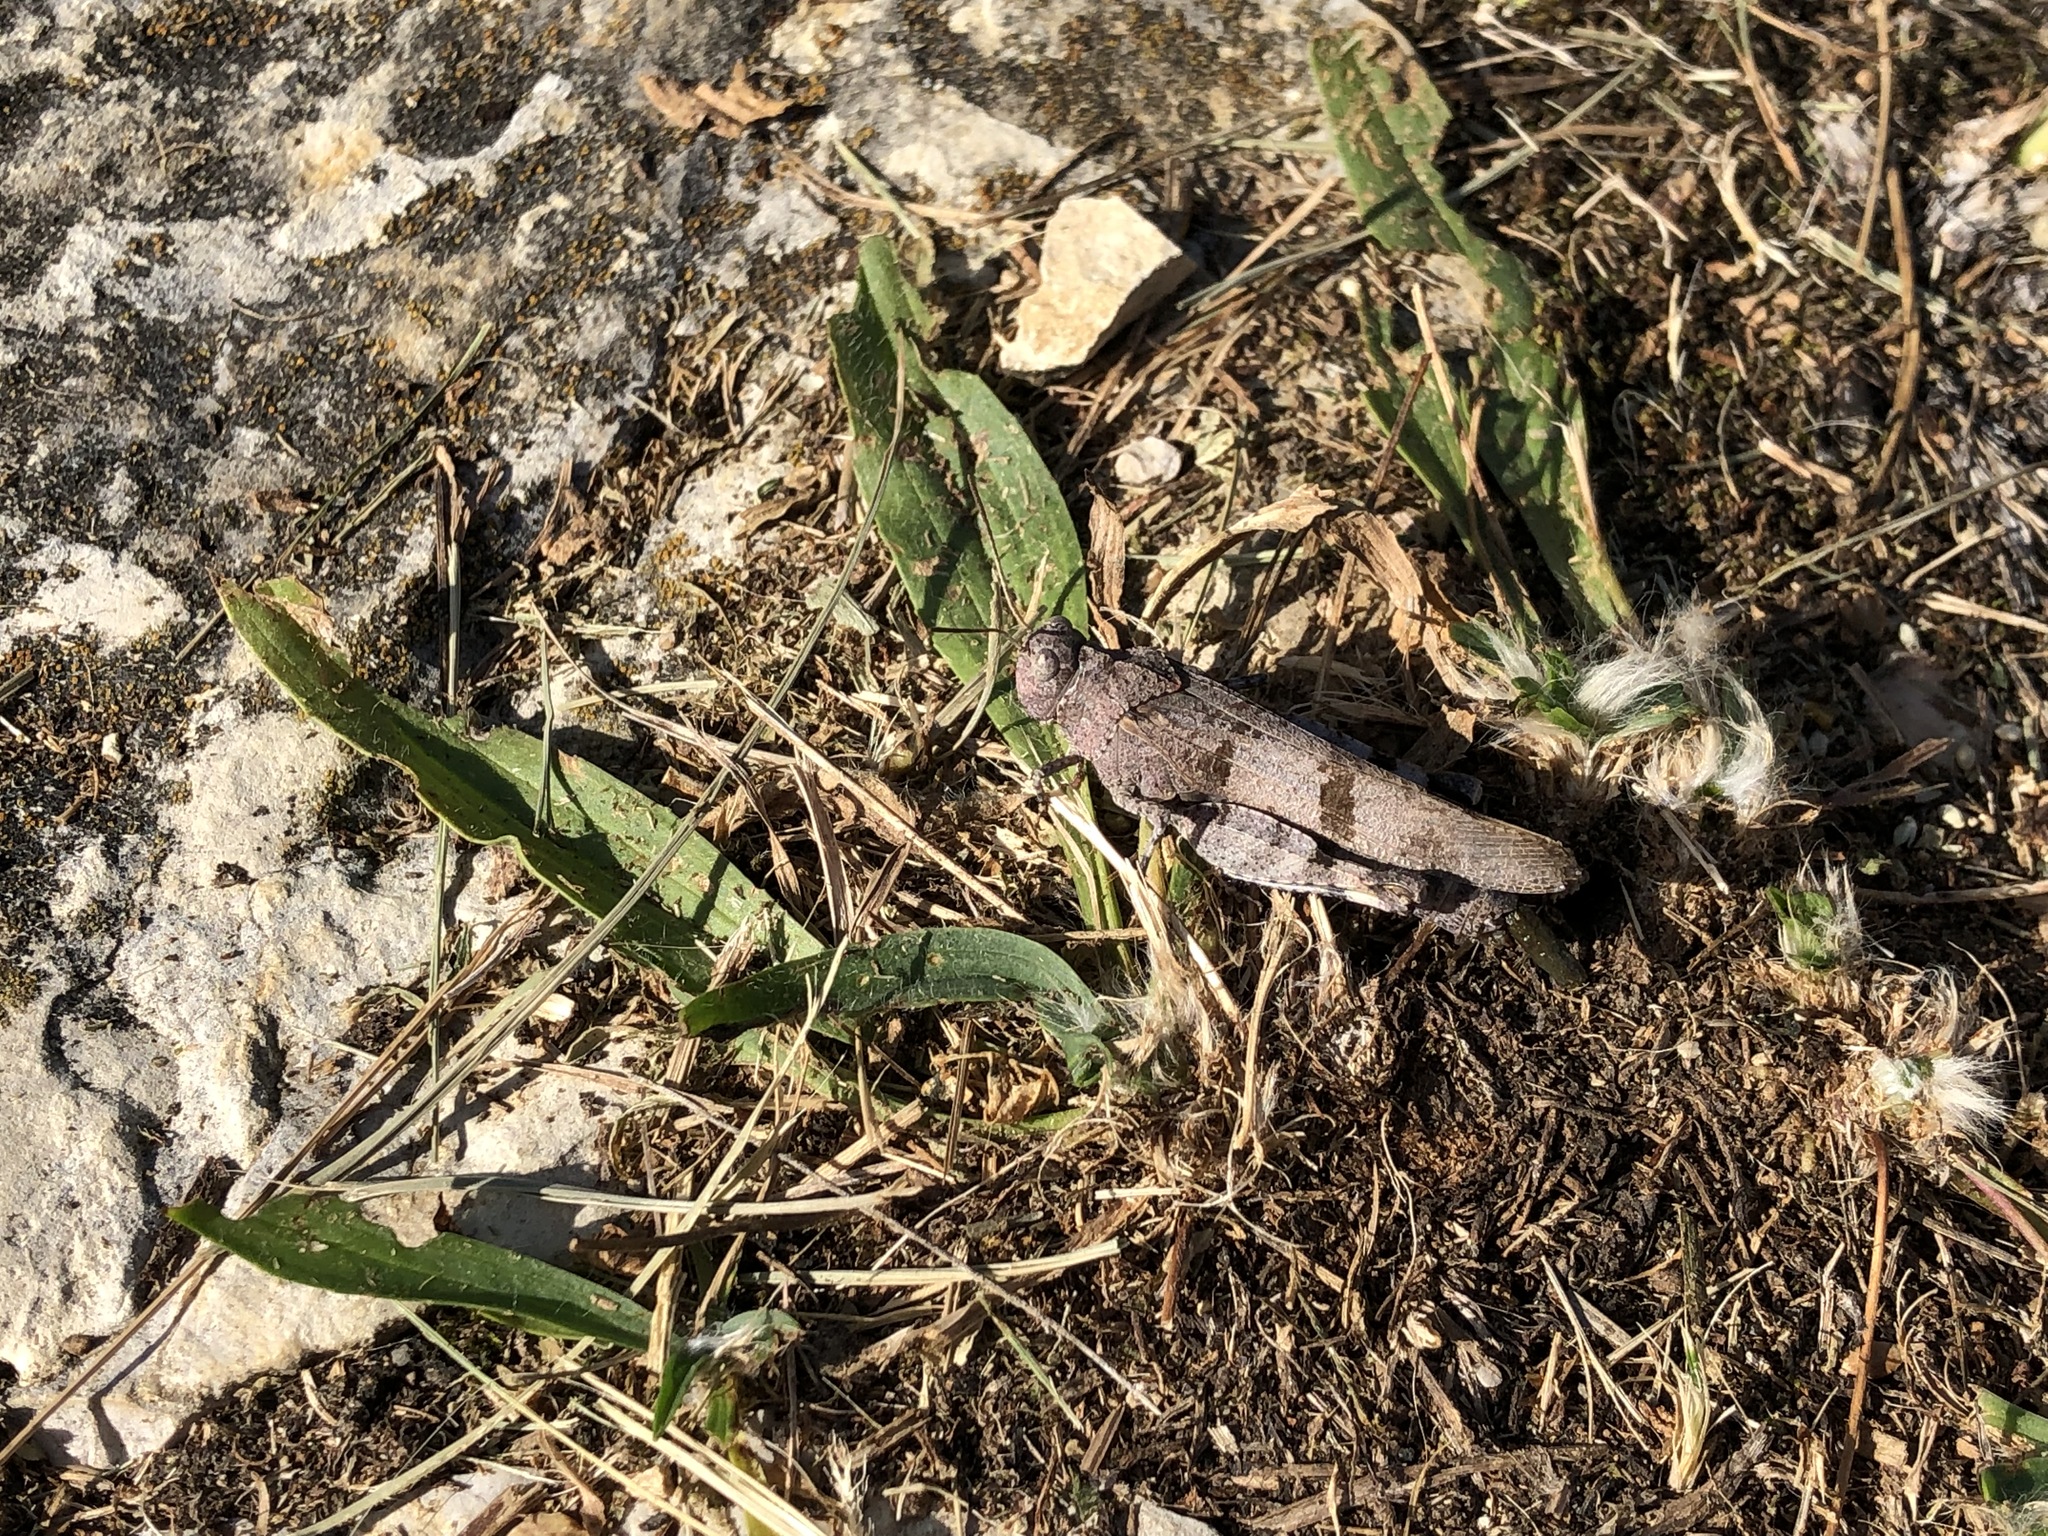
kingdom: Animalia
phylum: Arthropoda
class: Insecta
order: Orthoptera
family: Acrididae
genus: Oedipoda
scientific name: Oedipoda caerulescens
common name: Blue-winged grasshopper
